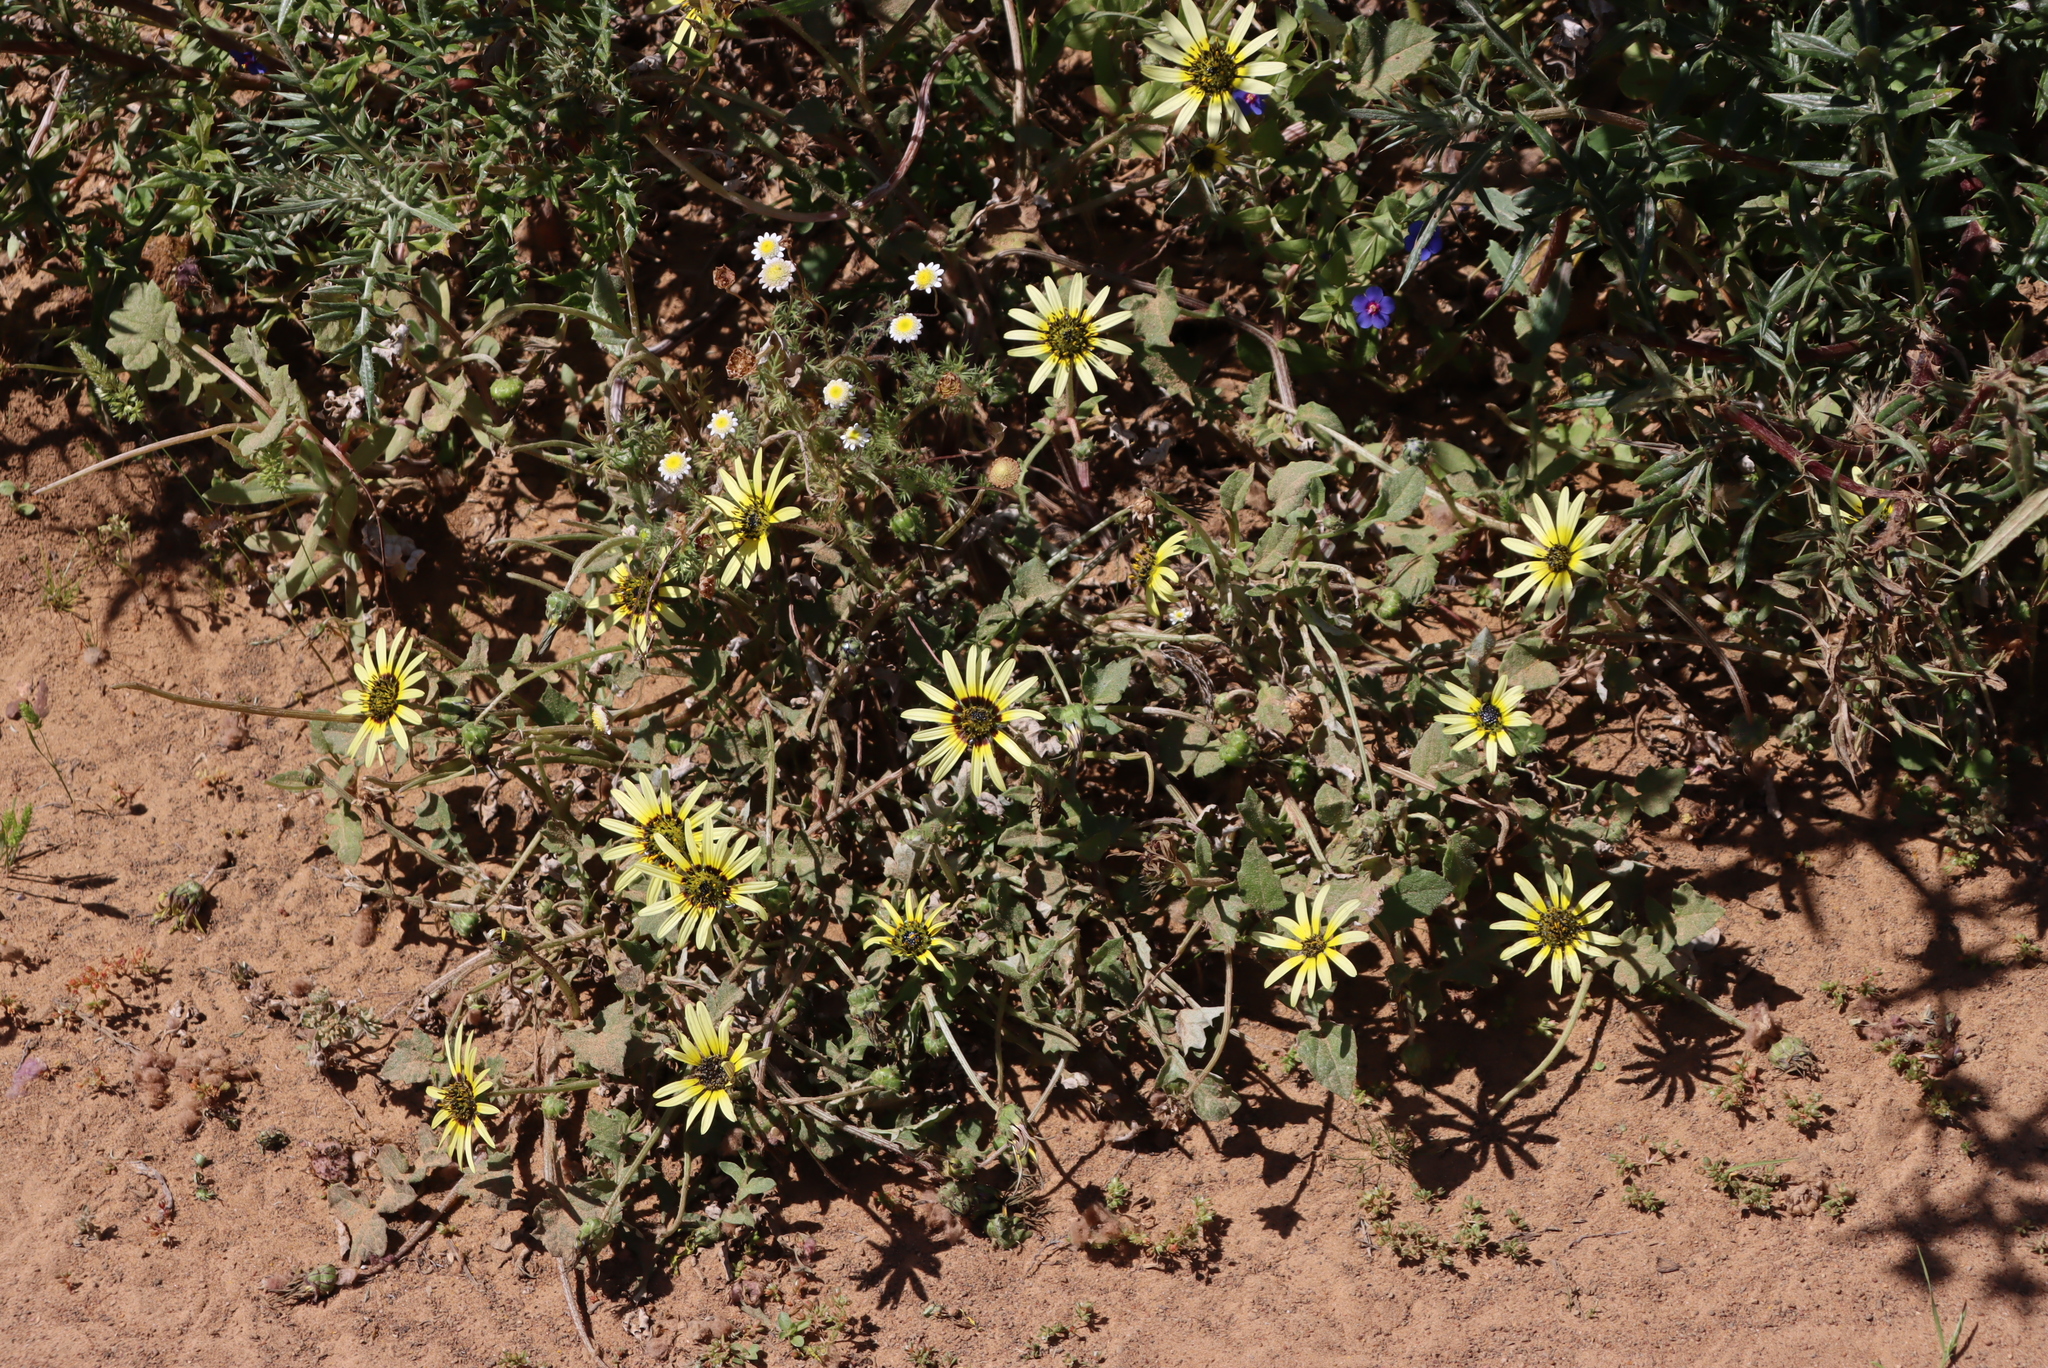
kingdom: Plantae
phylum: Tracheophyta
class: Magnoliopsida
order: Asterales
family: Asteraceae
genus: Arctotheca
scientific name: Arctotheca calendula
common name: Capeweed
